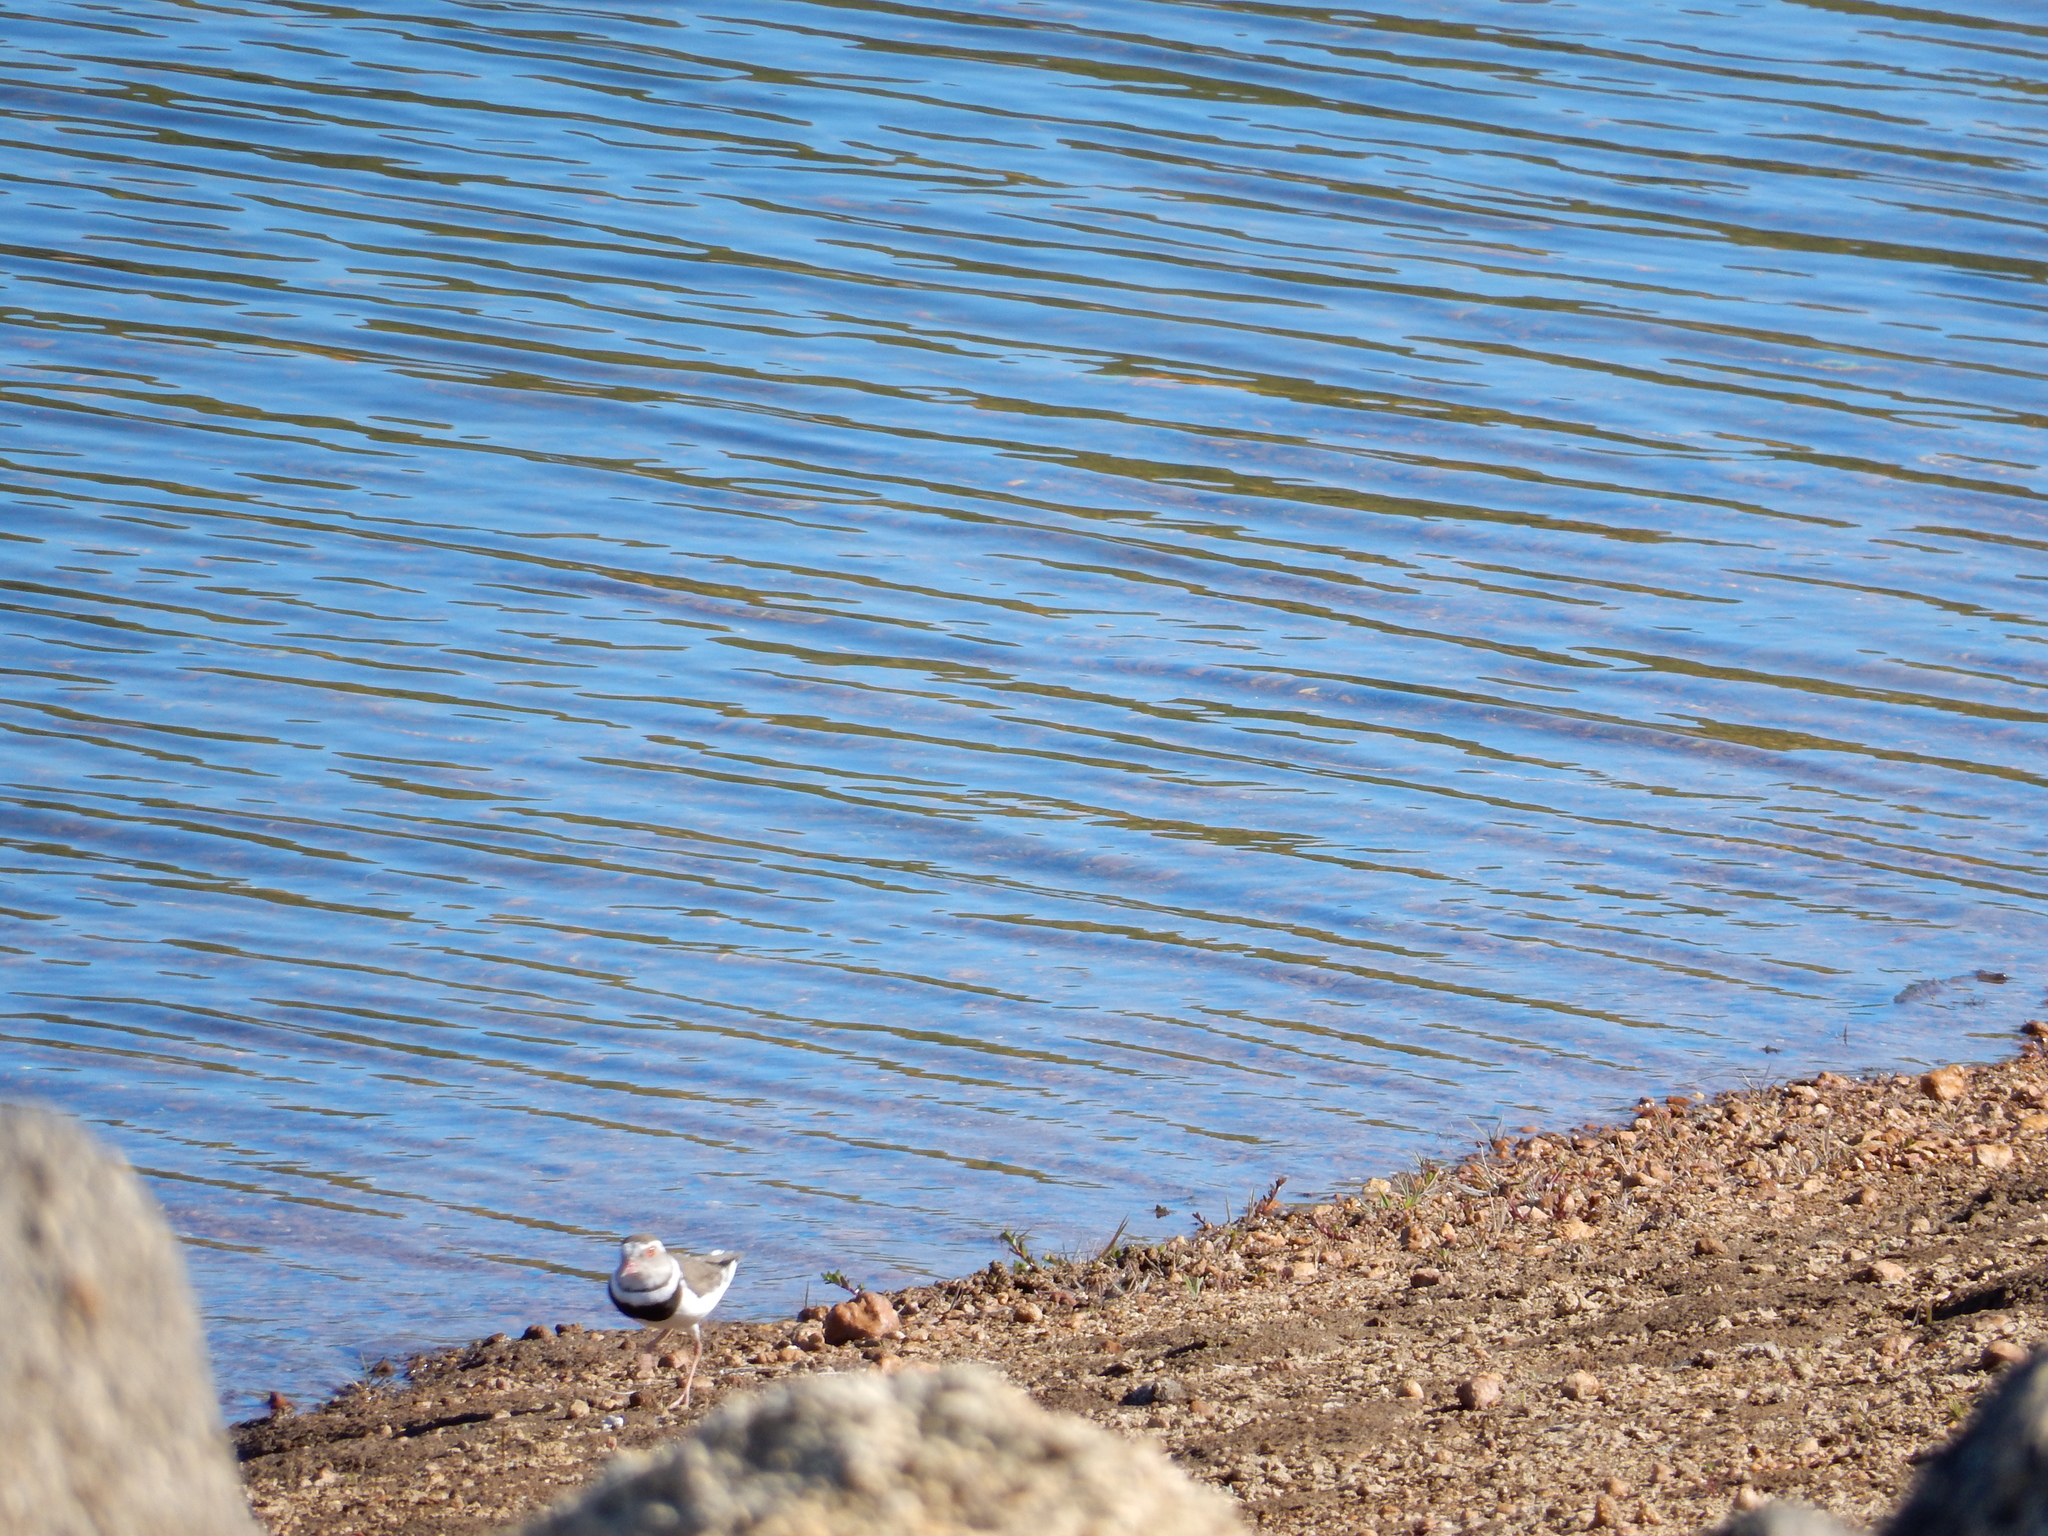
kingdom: Animalia
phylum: Chordata
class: Aves
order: Charadriiformes
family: Charadriidae
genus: Charadrius
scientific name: Charadrius tricollaris
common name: Three-banded plover
